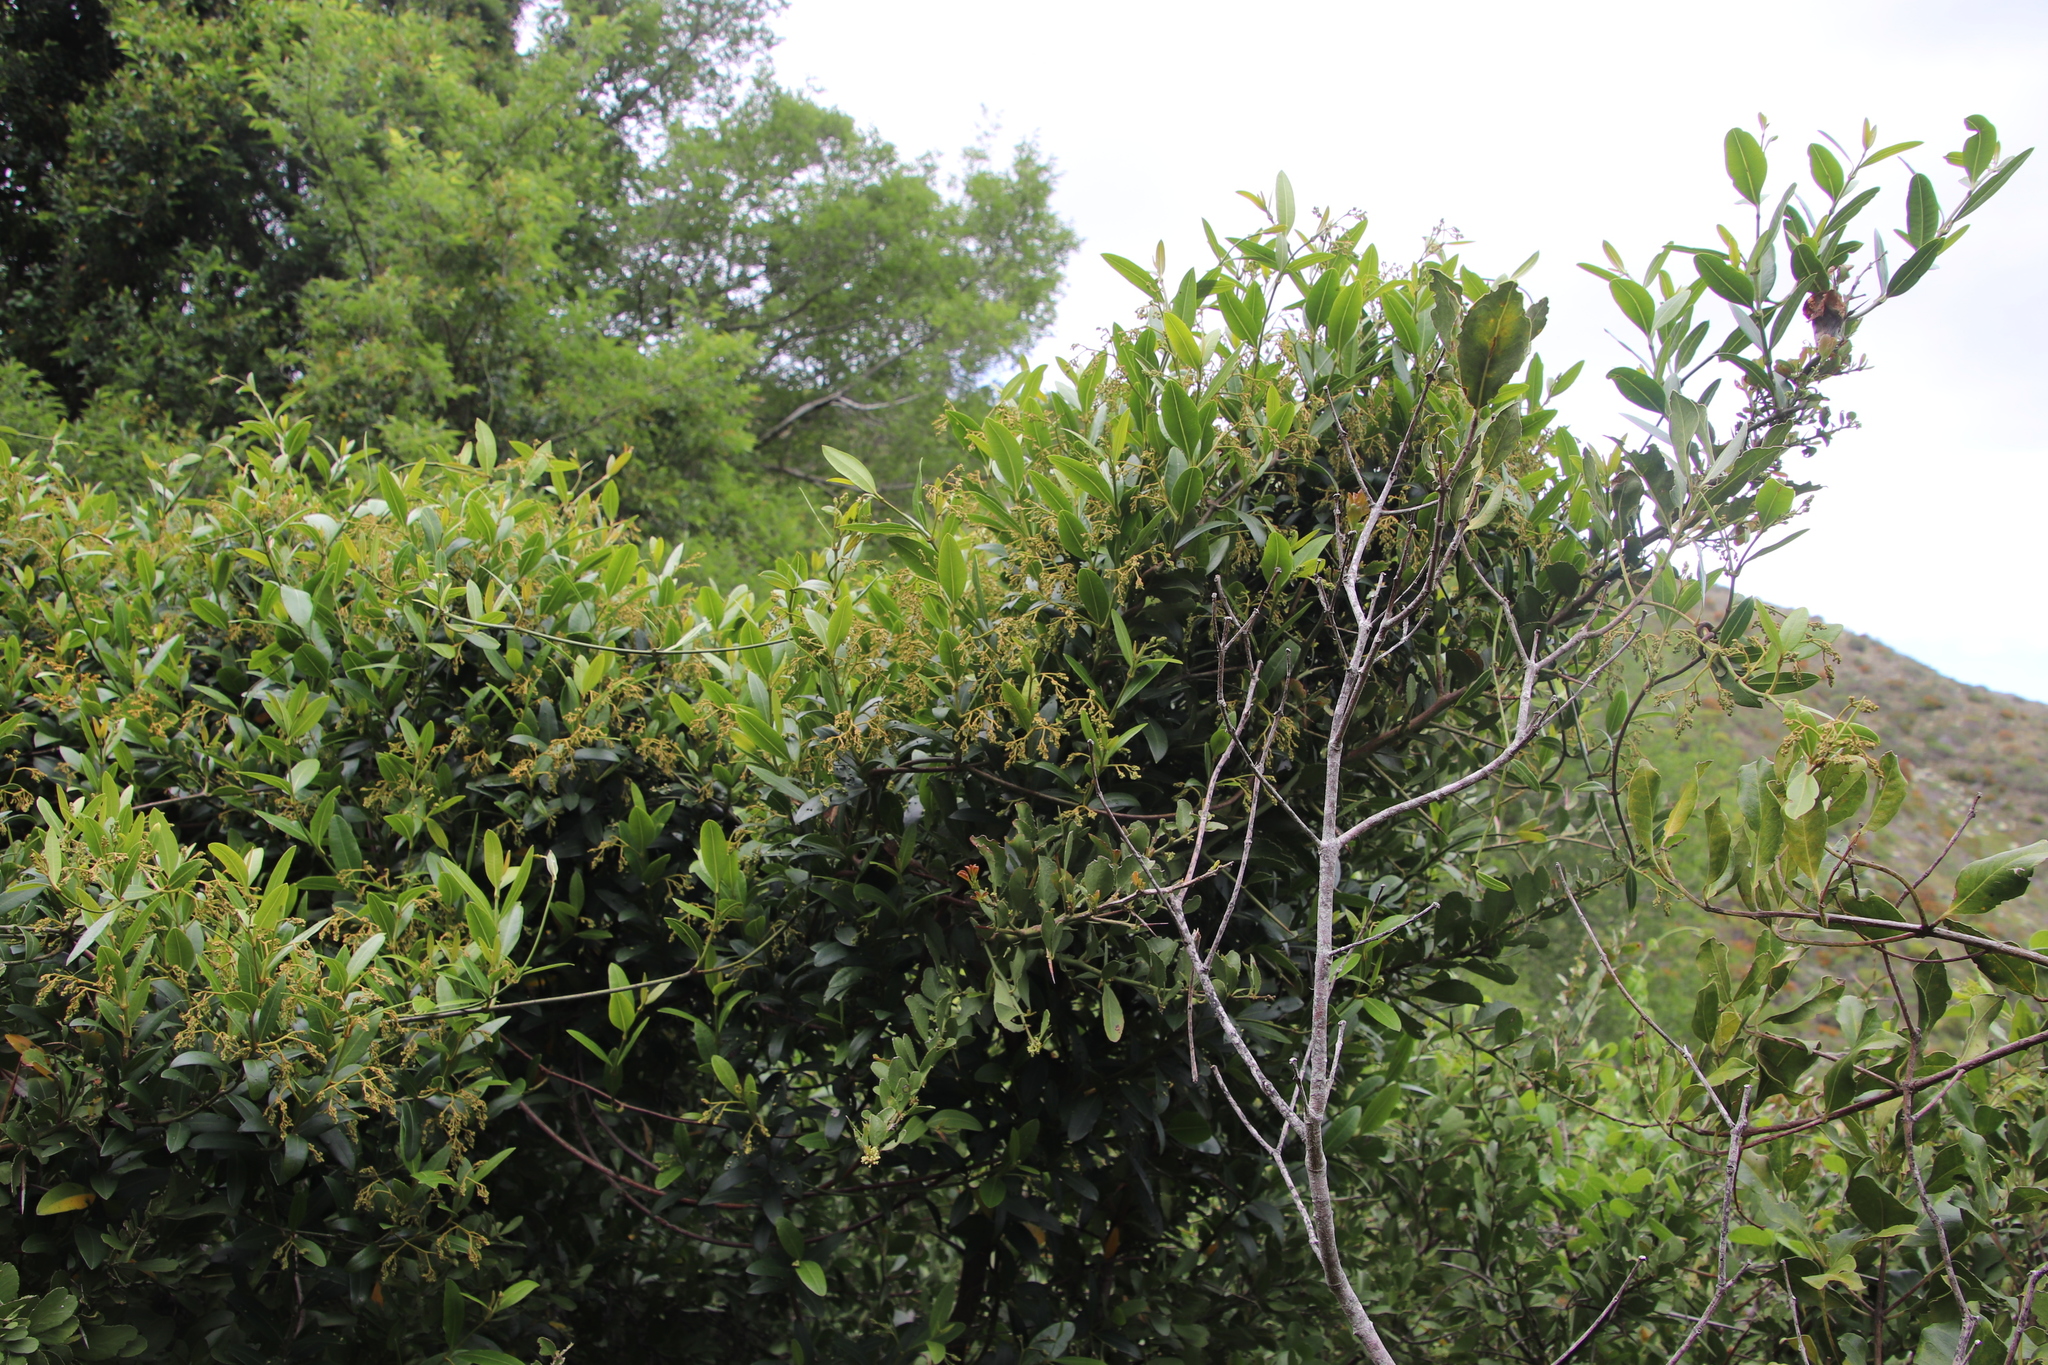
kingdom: Plantae
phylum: Tracheophyta
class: Magnoliopsida
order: Gentianales
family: Apocynaceae
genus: Secamone
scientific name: Secamone alpini
